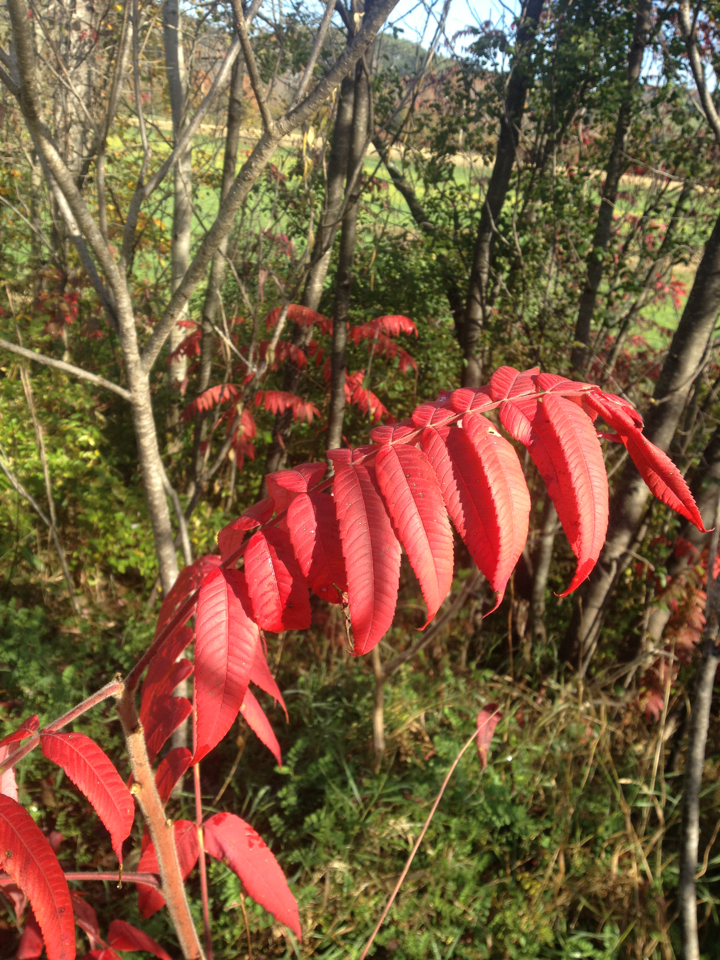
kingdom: Plantae
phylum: Tracheophyta
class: Magnoliopsida
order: Sapindales
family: Anacardiaceae
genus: Rhus
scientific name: Rhus typhina
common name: Staghorn sumac
